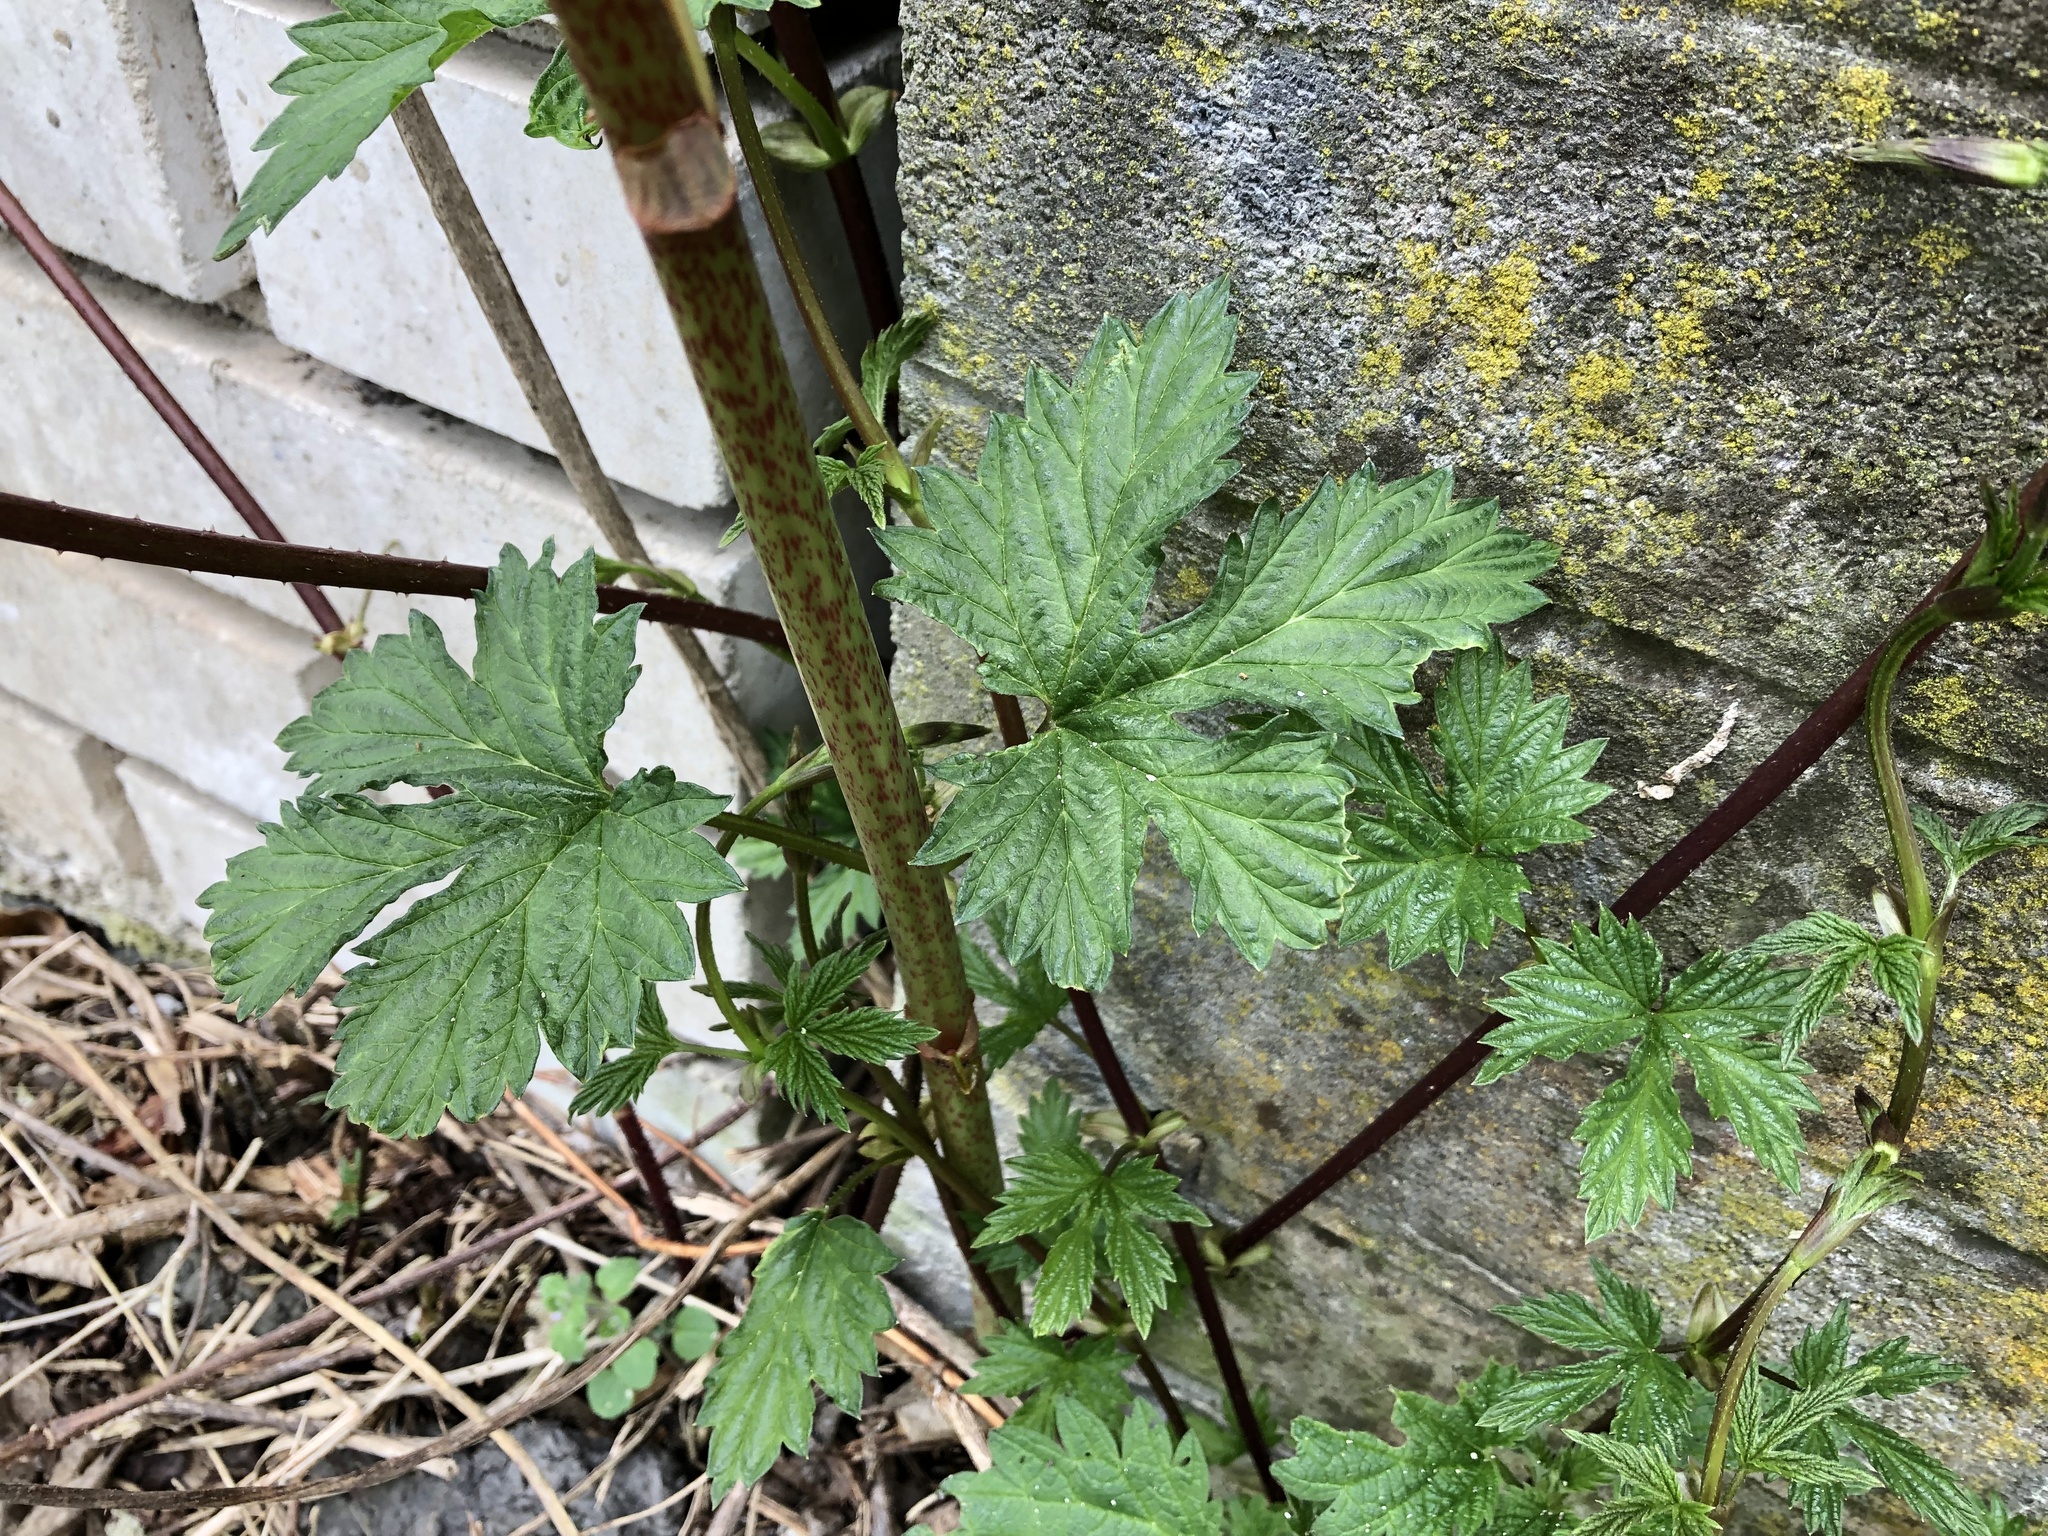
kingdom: Plantae
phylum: Tracheophyta
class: Magnoliopsida
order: Rosales
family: Cannabaceae
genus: Humulus
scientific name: Humulus lupulus
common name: Hop
